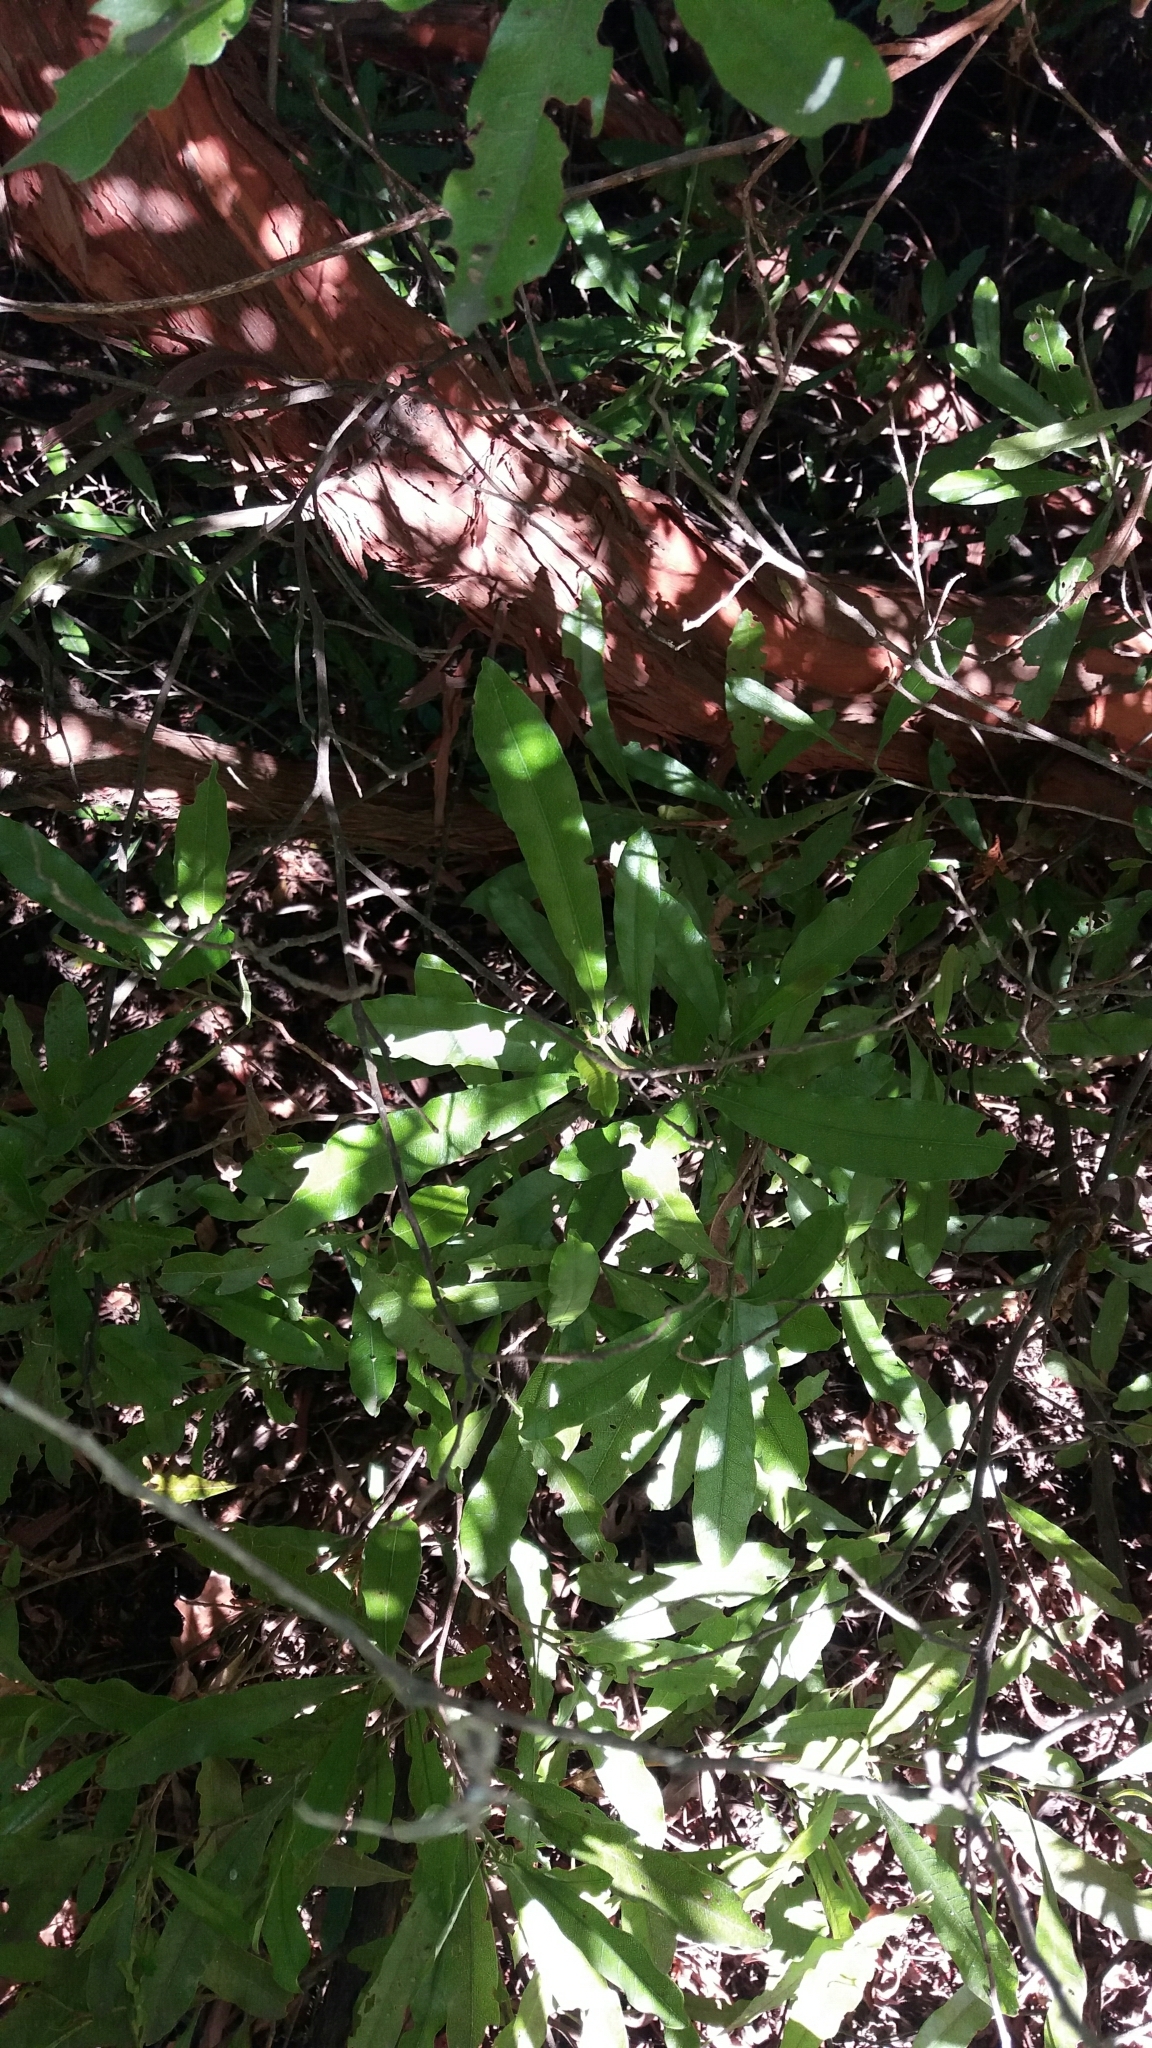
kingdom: Plantae
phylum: Tracheophyta
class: Magnoliopsida
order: Sapindales
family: Sapindaceae
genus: Dodonaea
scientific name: Dodonaea viscosa
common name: Hopbush
